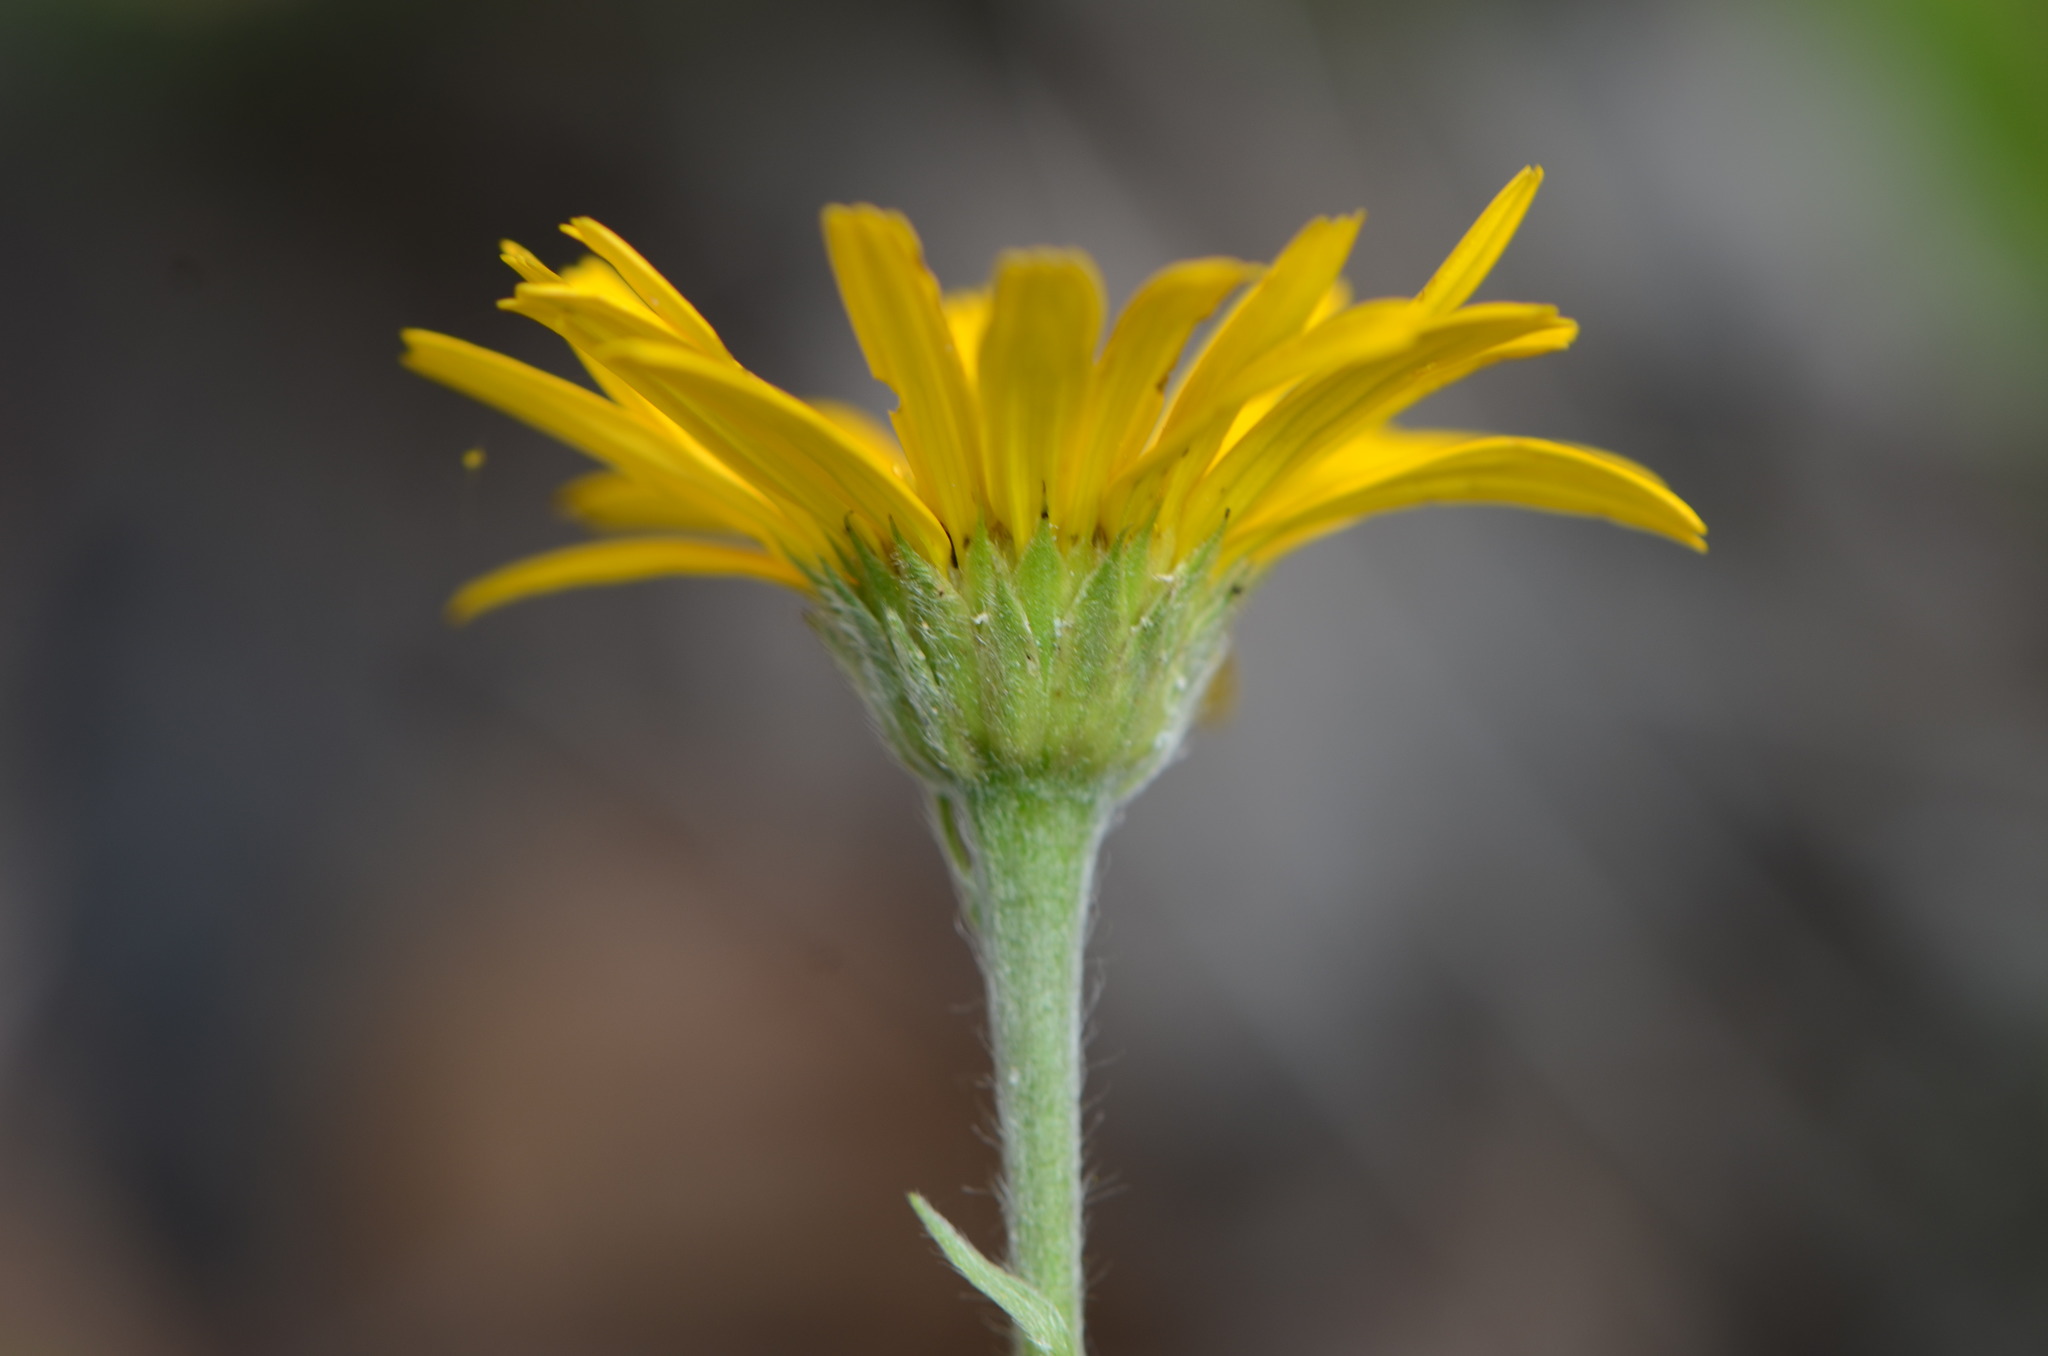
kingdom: Plantae
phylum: Tracheophyta
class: Magnoliopsida
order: Asterales
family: Asteraceae
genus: Buphthalmum
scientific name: Buphthalmum salicifolium
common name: Willow-leaved yellow-oxeye
